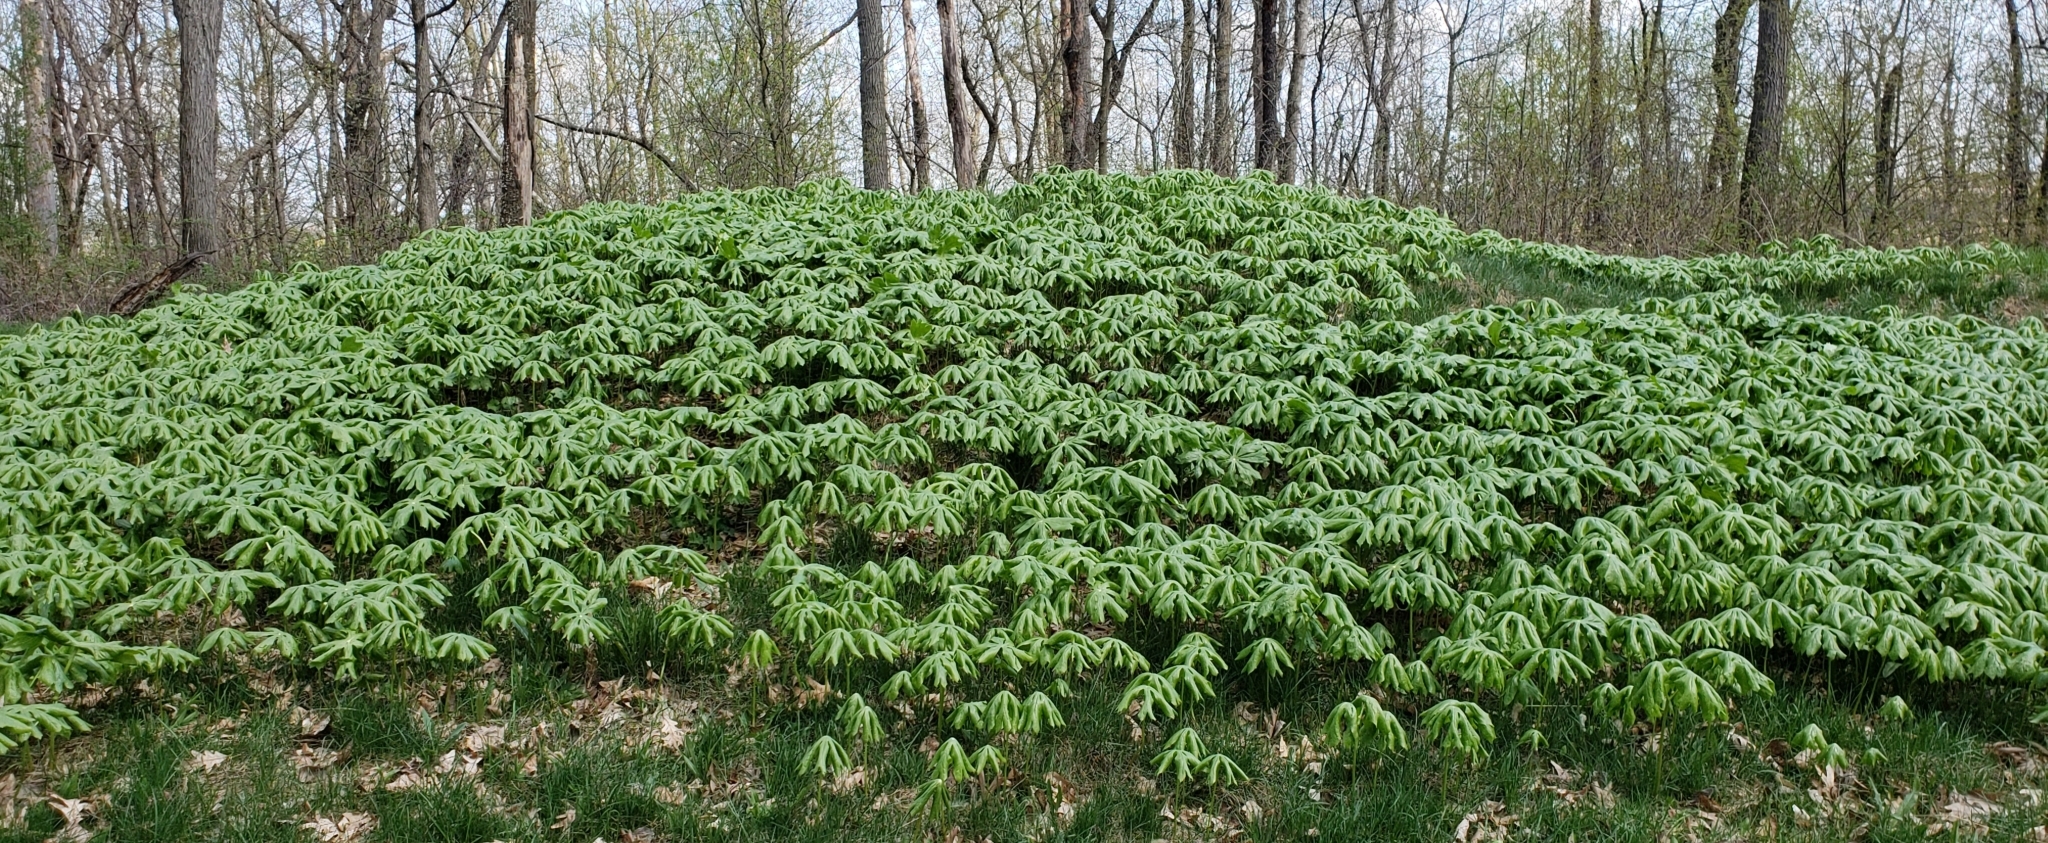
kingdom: Plantae
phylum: Tracheophyta
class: Magnoliopsida
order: Ranunculales
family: Berberidaceae
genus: Podophyllum
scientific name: Podophyllum peltatum
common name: Wild mandrake
